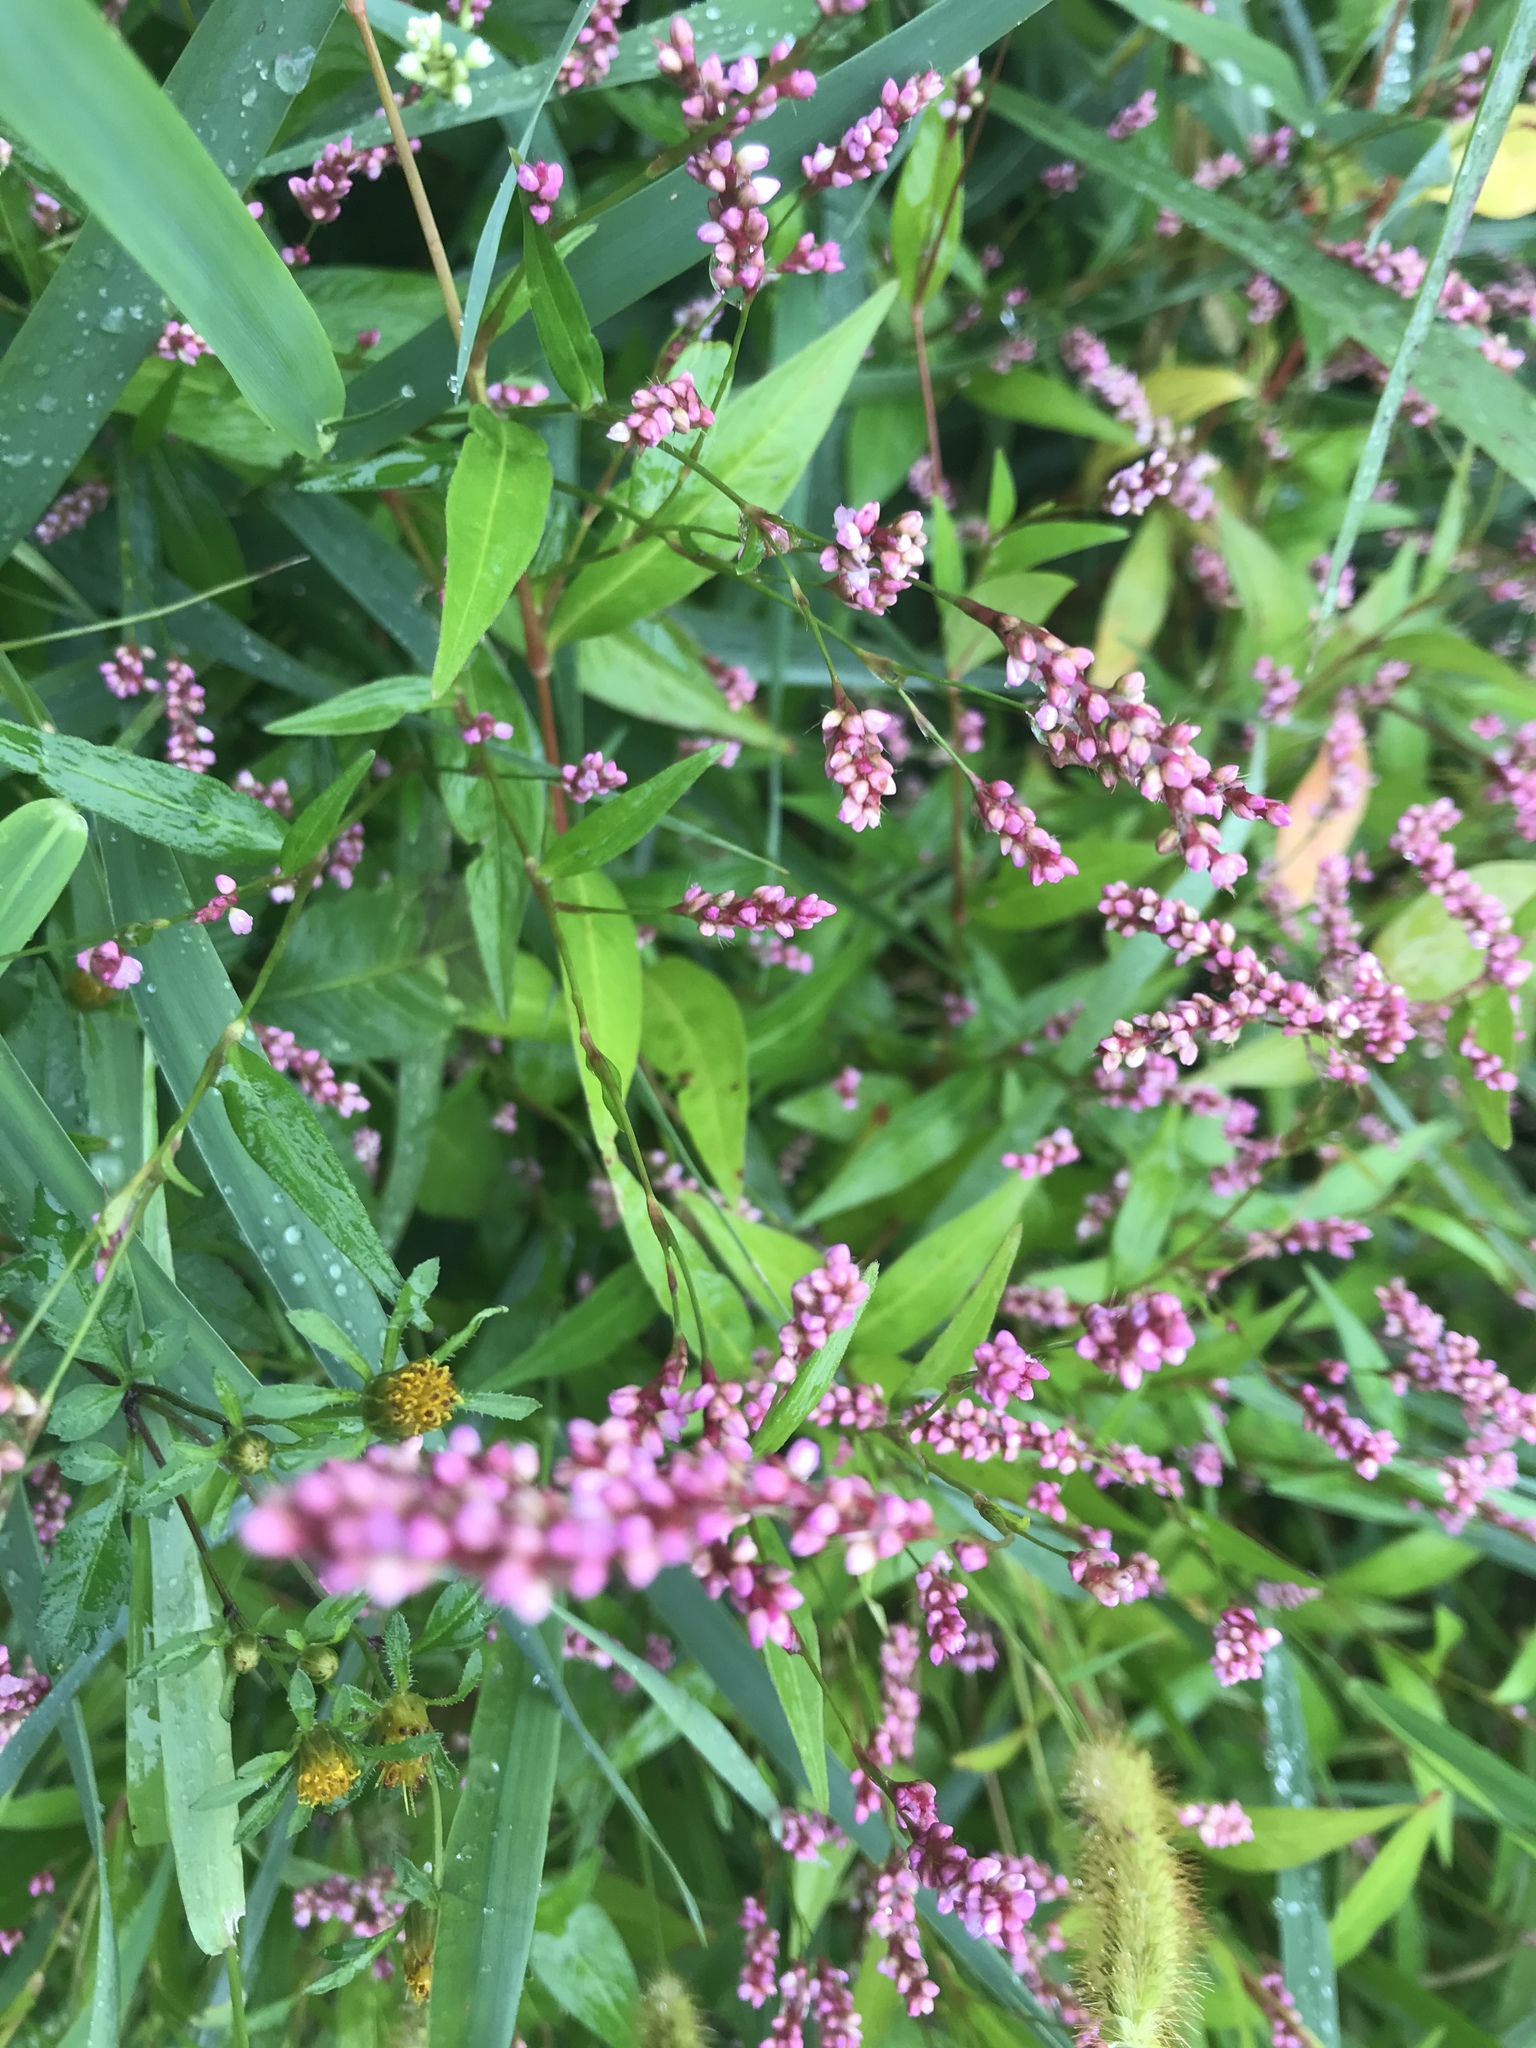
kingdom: Plantae
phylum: Tracheophyta
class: Magnoliopsida
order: Caryophyllales
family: Polygonaceae
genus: Persicaria
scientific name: Persicaria longiseta
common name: Bristly lady's-thumb
